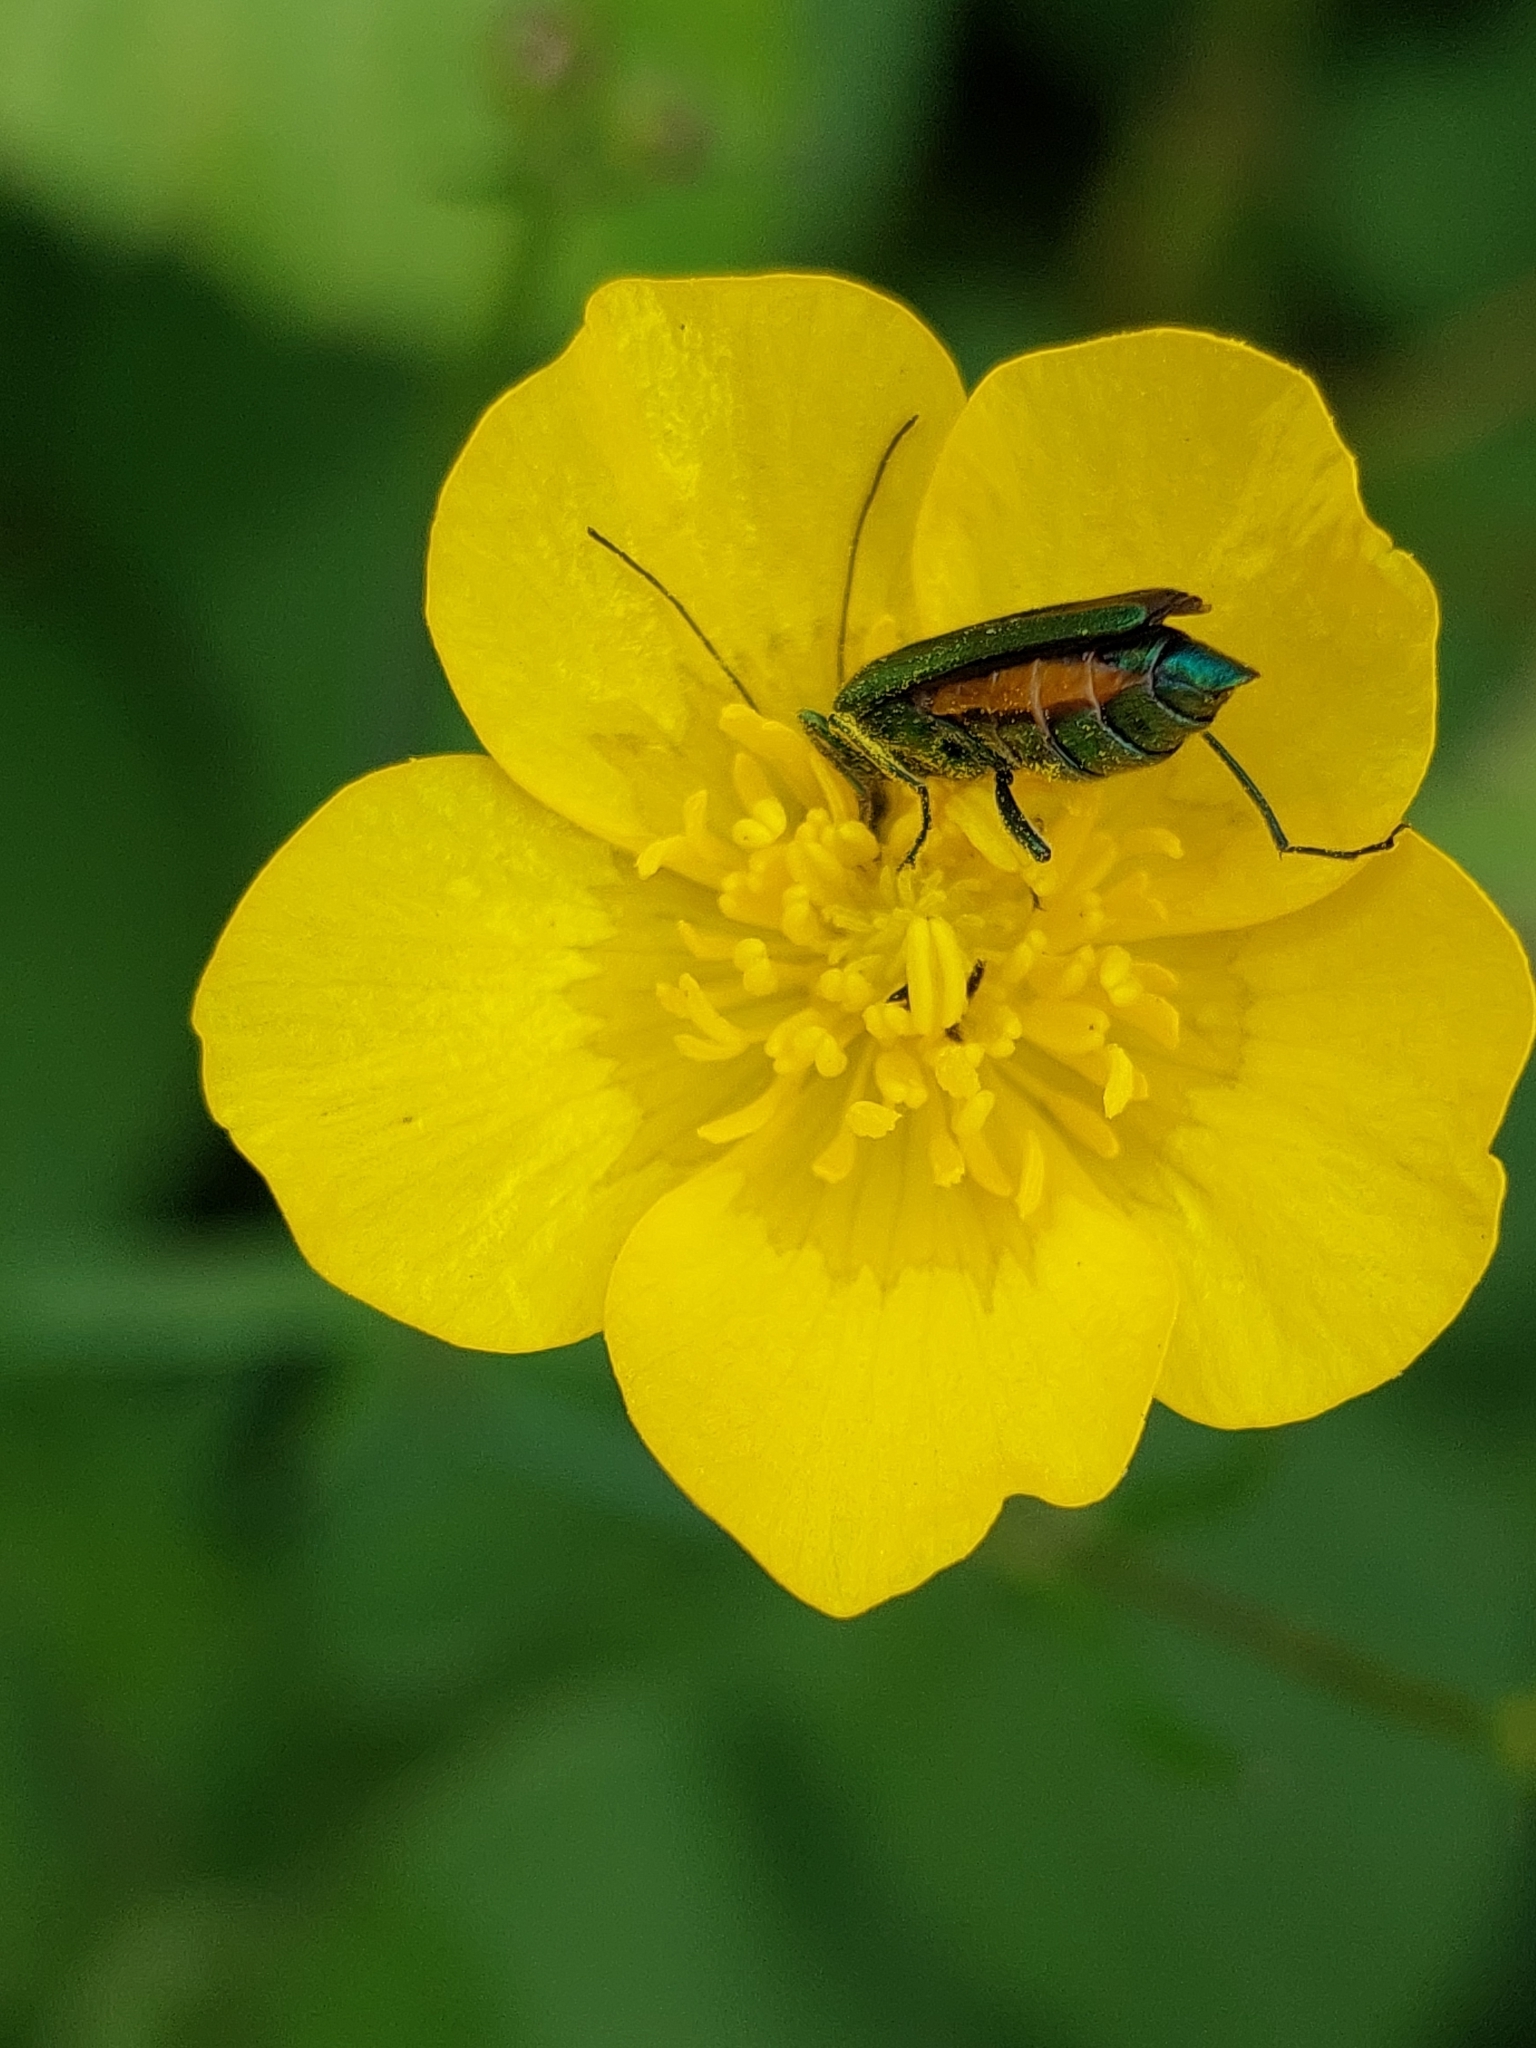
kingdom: Animalia
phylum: Arthropoda
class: Insecta
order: Coleoptera
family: Oedemeridae
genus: Oedemera
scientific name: Oedemera nobilis
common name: Swollen-thighed beetle
